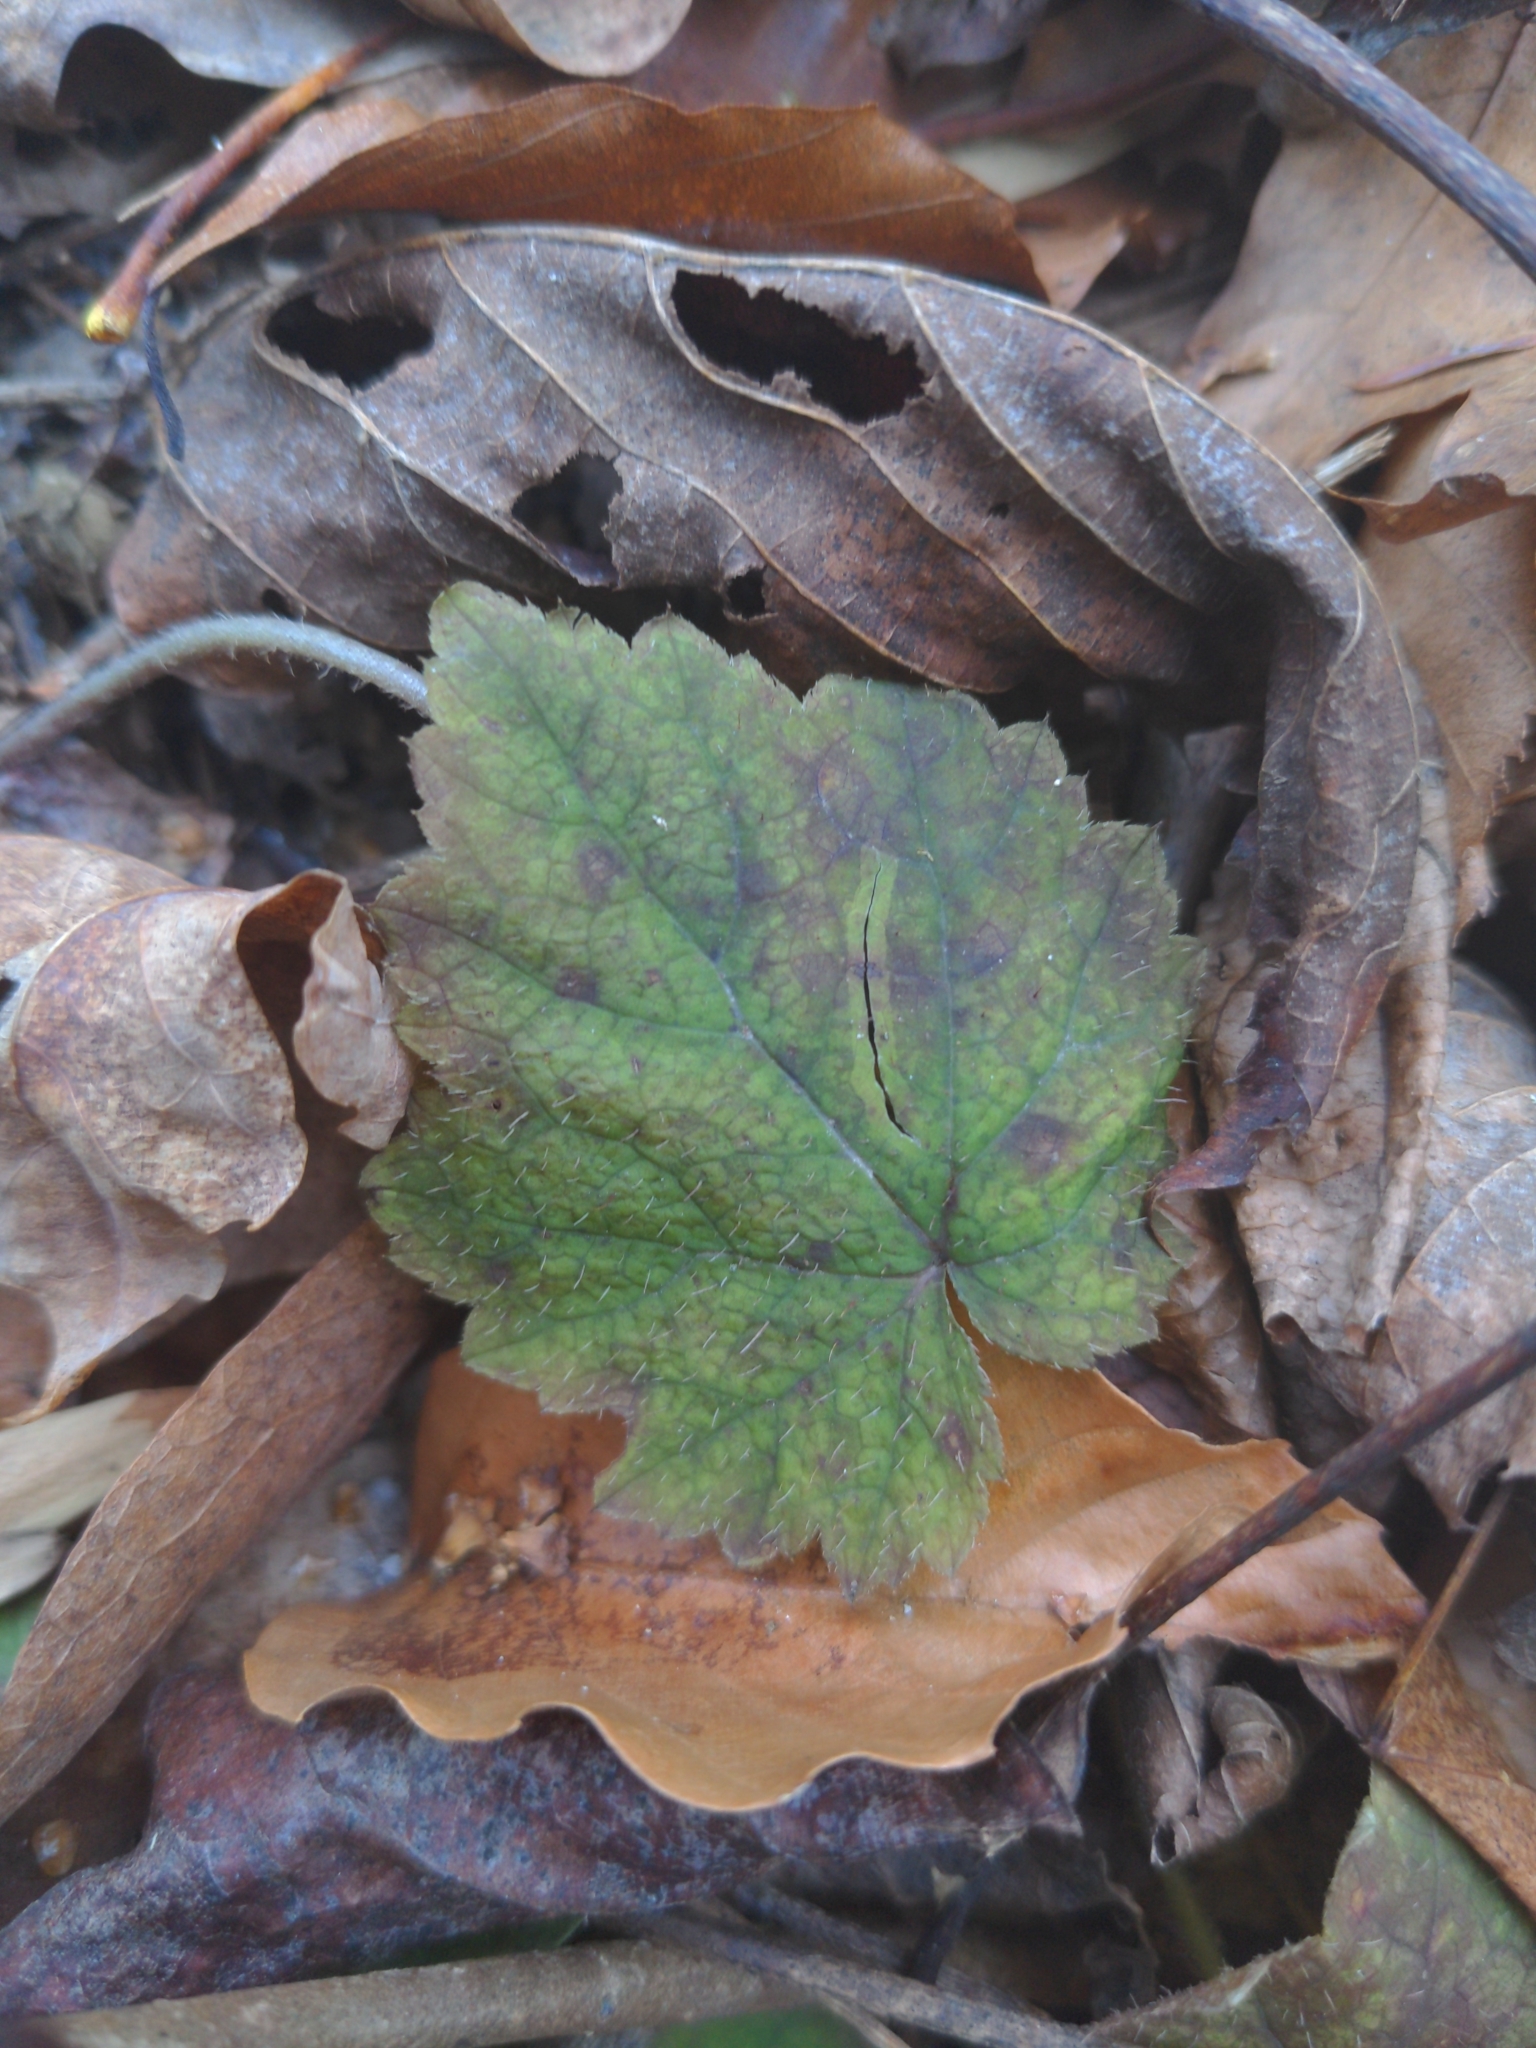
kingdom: Plantae
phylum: Tracheophyta
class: Magnoliopsida
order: Saxifragales
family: Saxifragaceae
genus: Tiarella
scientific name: Tiarella stolonifera
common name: Stoloniferous foamflower
